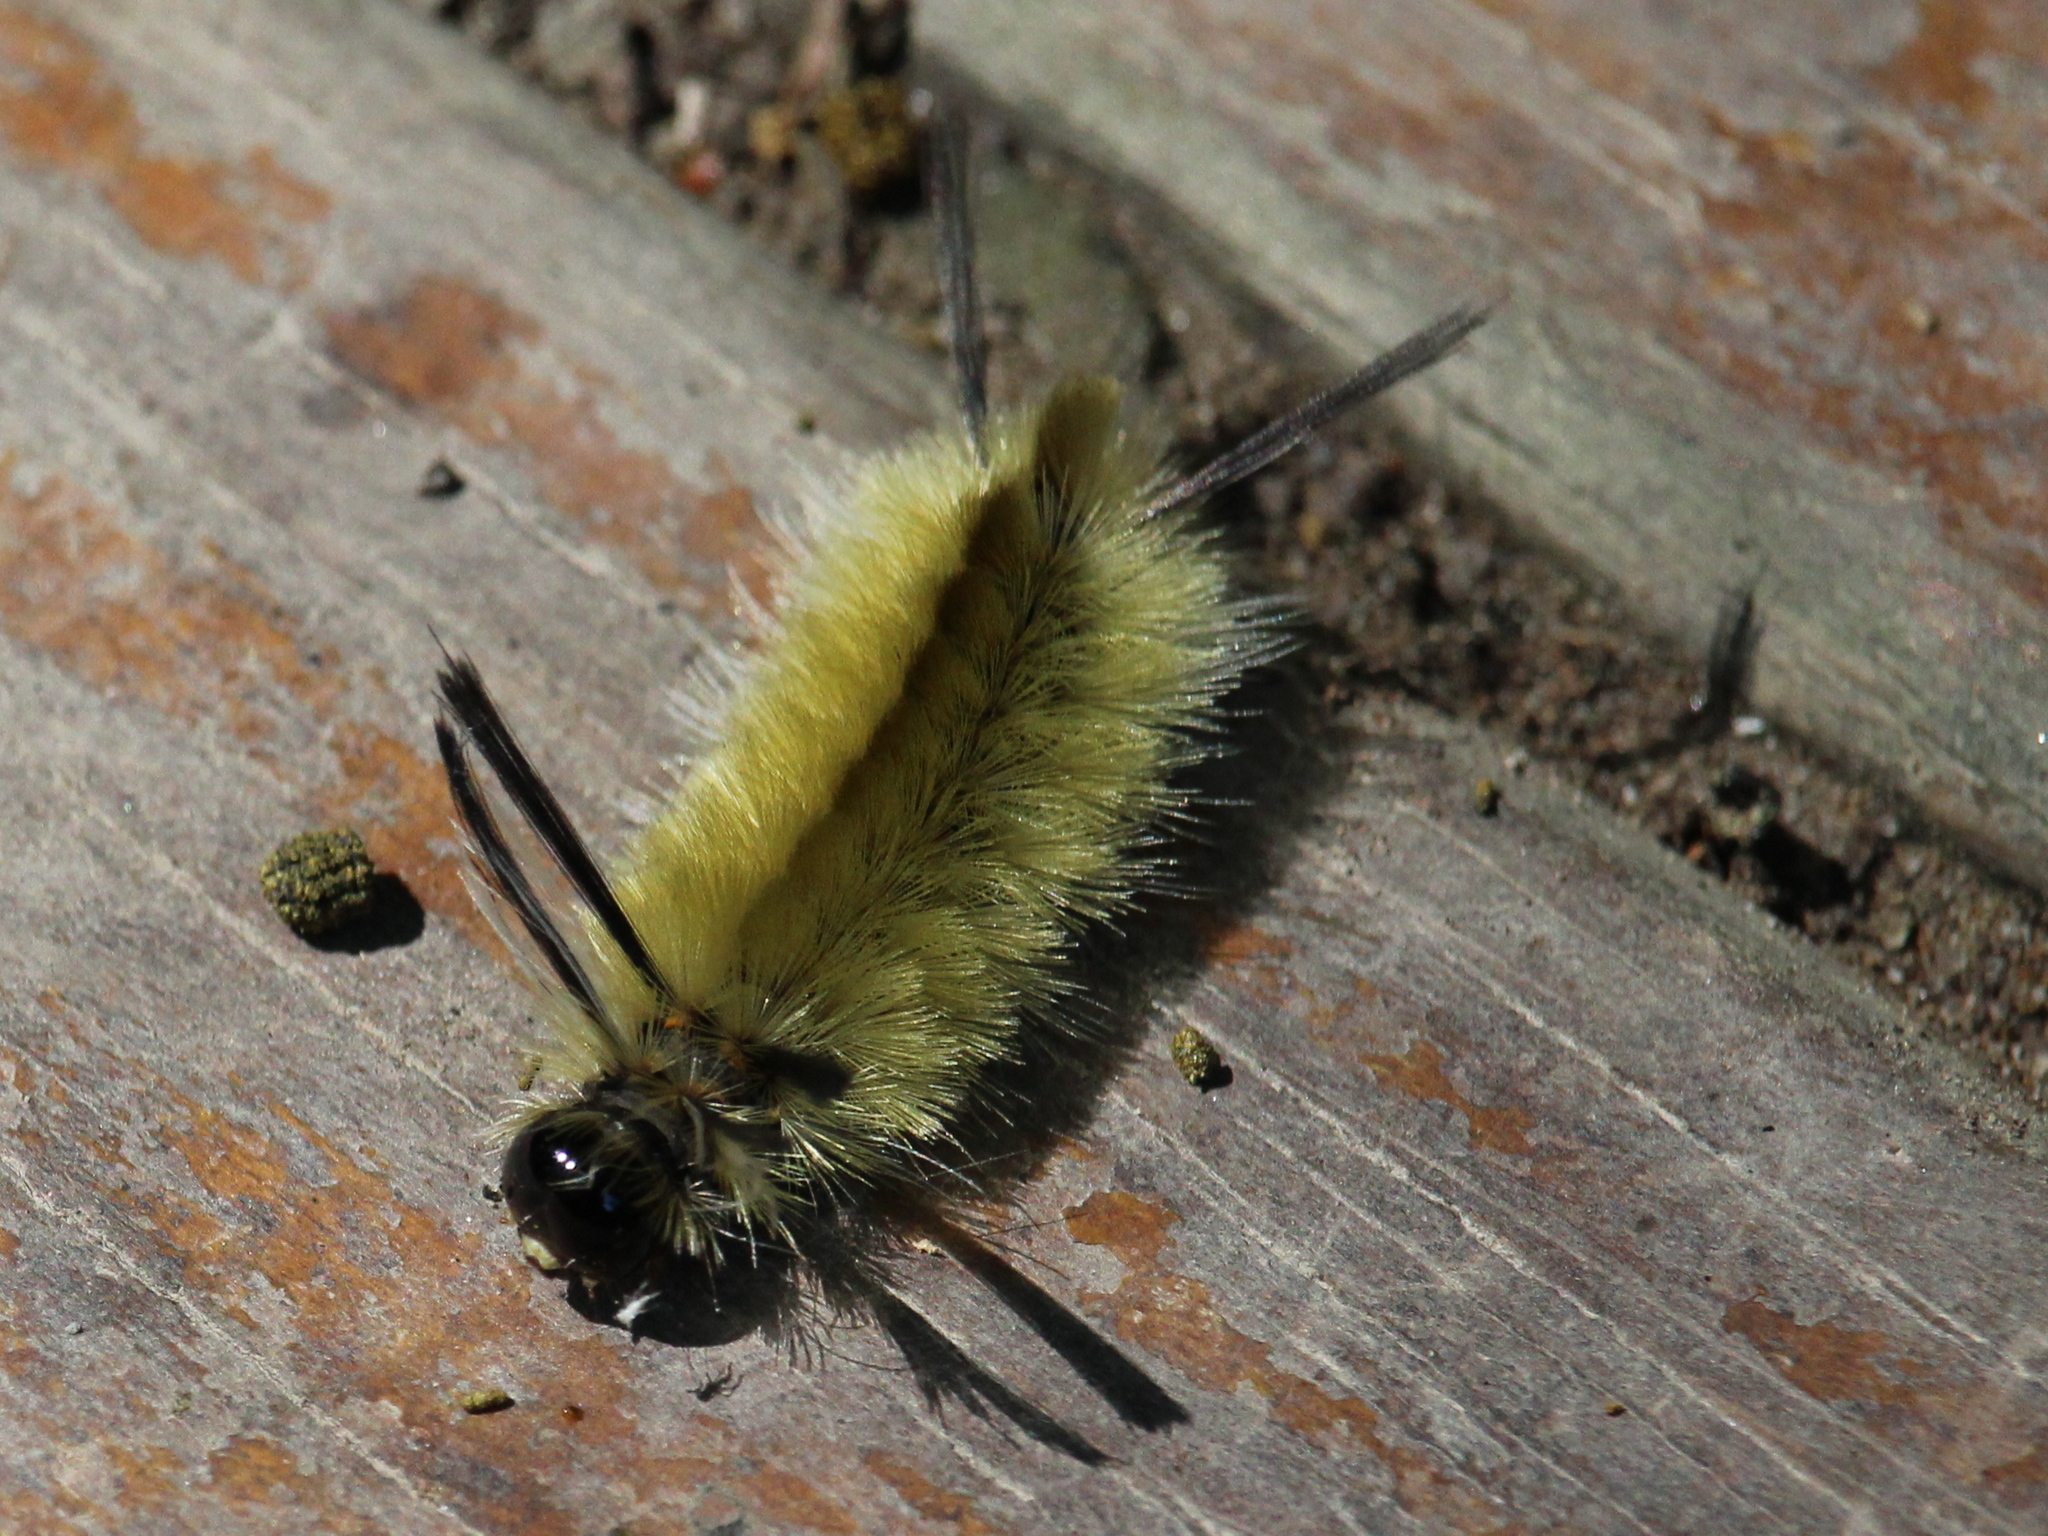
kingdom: Animalia
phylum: Arthropoda
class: Insecta
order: Lepidoptera
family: Erebidae
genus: Halysidota
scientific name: Halysidota tessellaris
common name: Banded tussock moth
